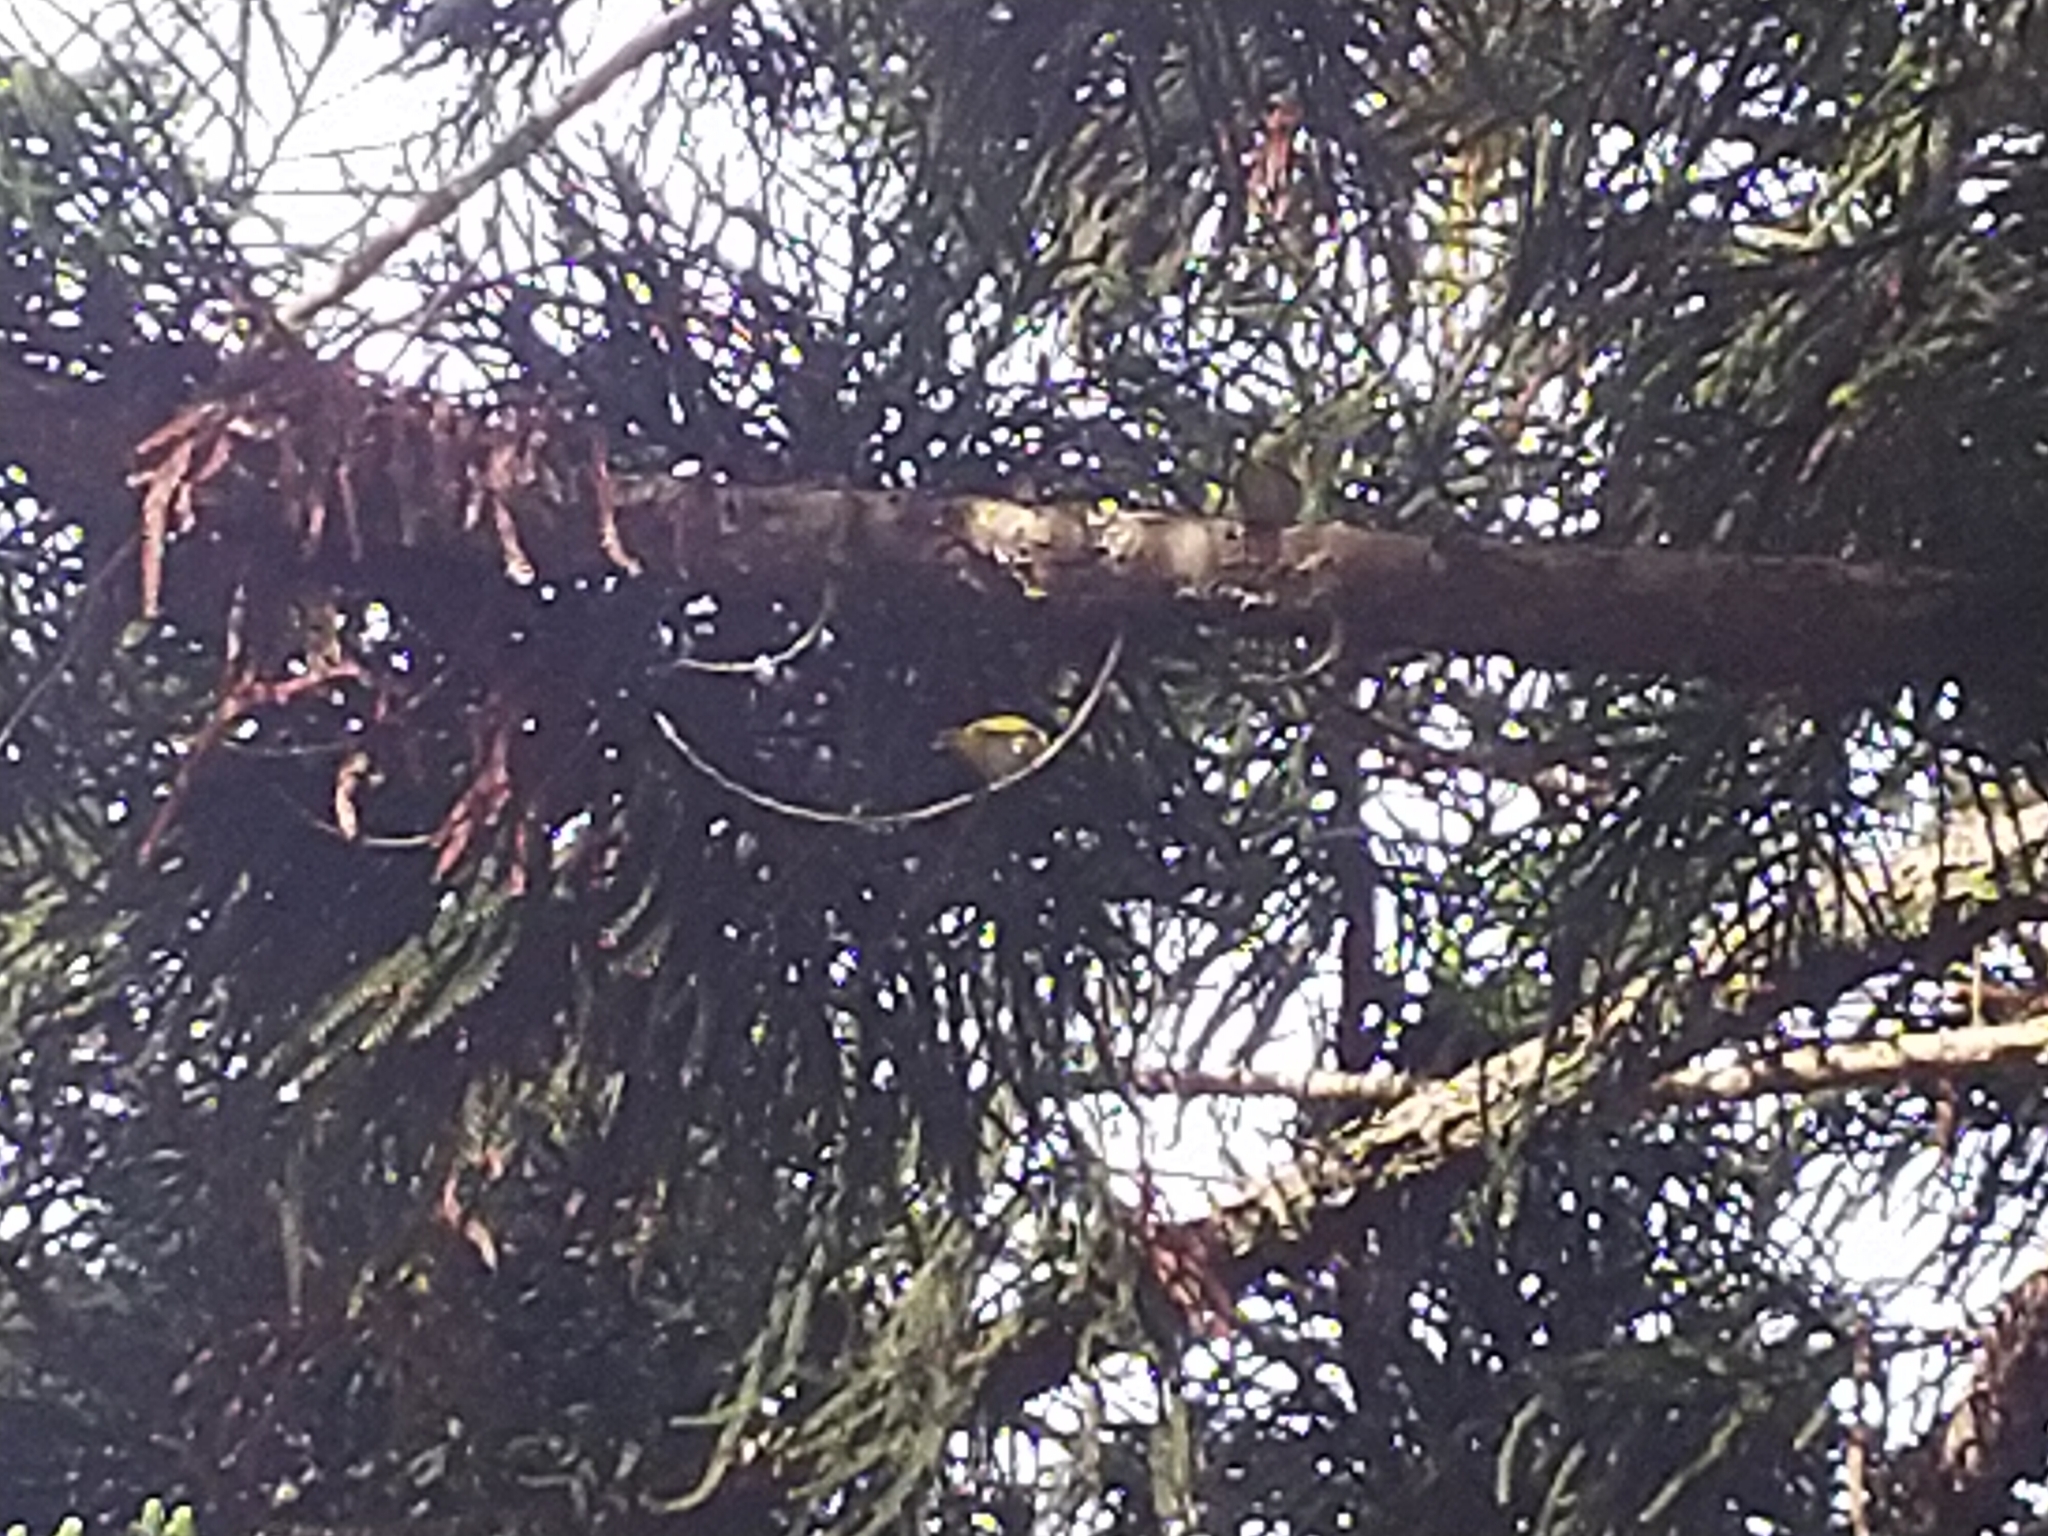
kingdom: Animalia
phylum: Chordata
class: Aves
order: Passeriformes
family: Zosteropidae
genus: Zosterops
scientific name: Zosterops simplex
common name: Swinhoe's white-eye
